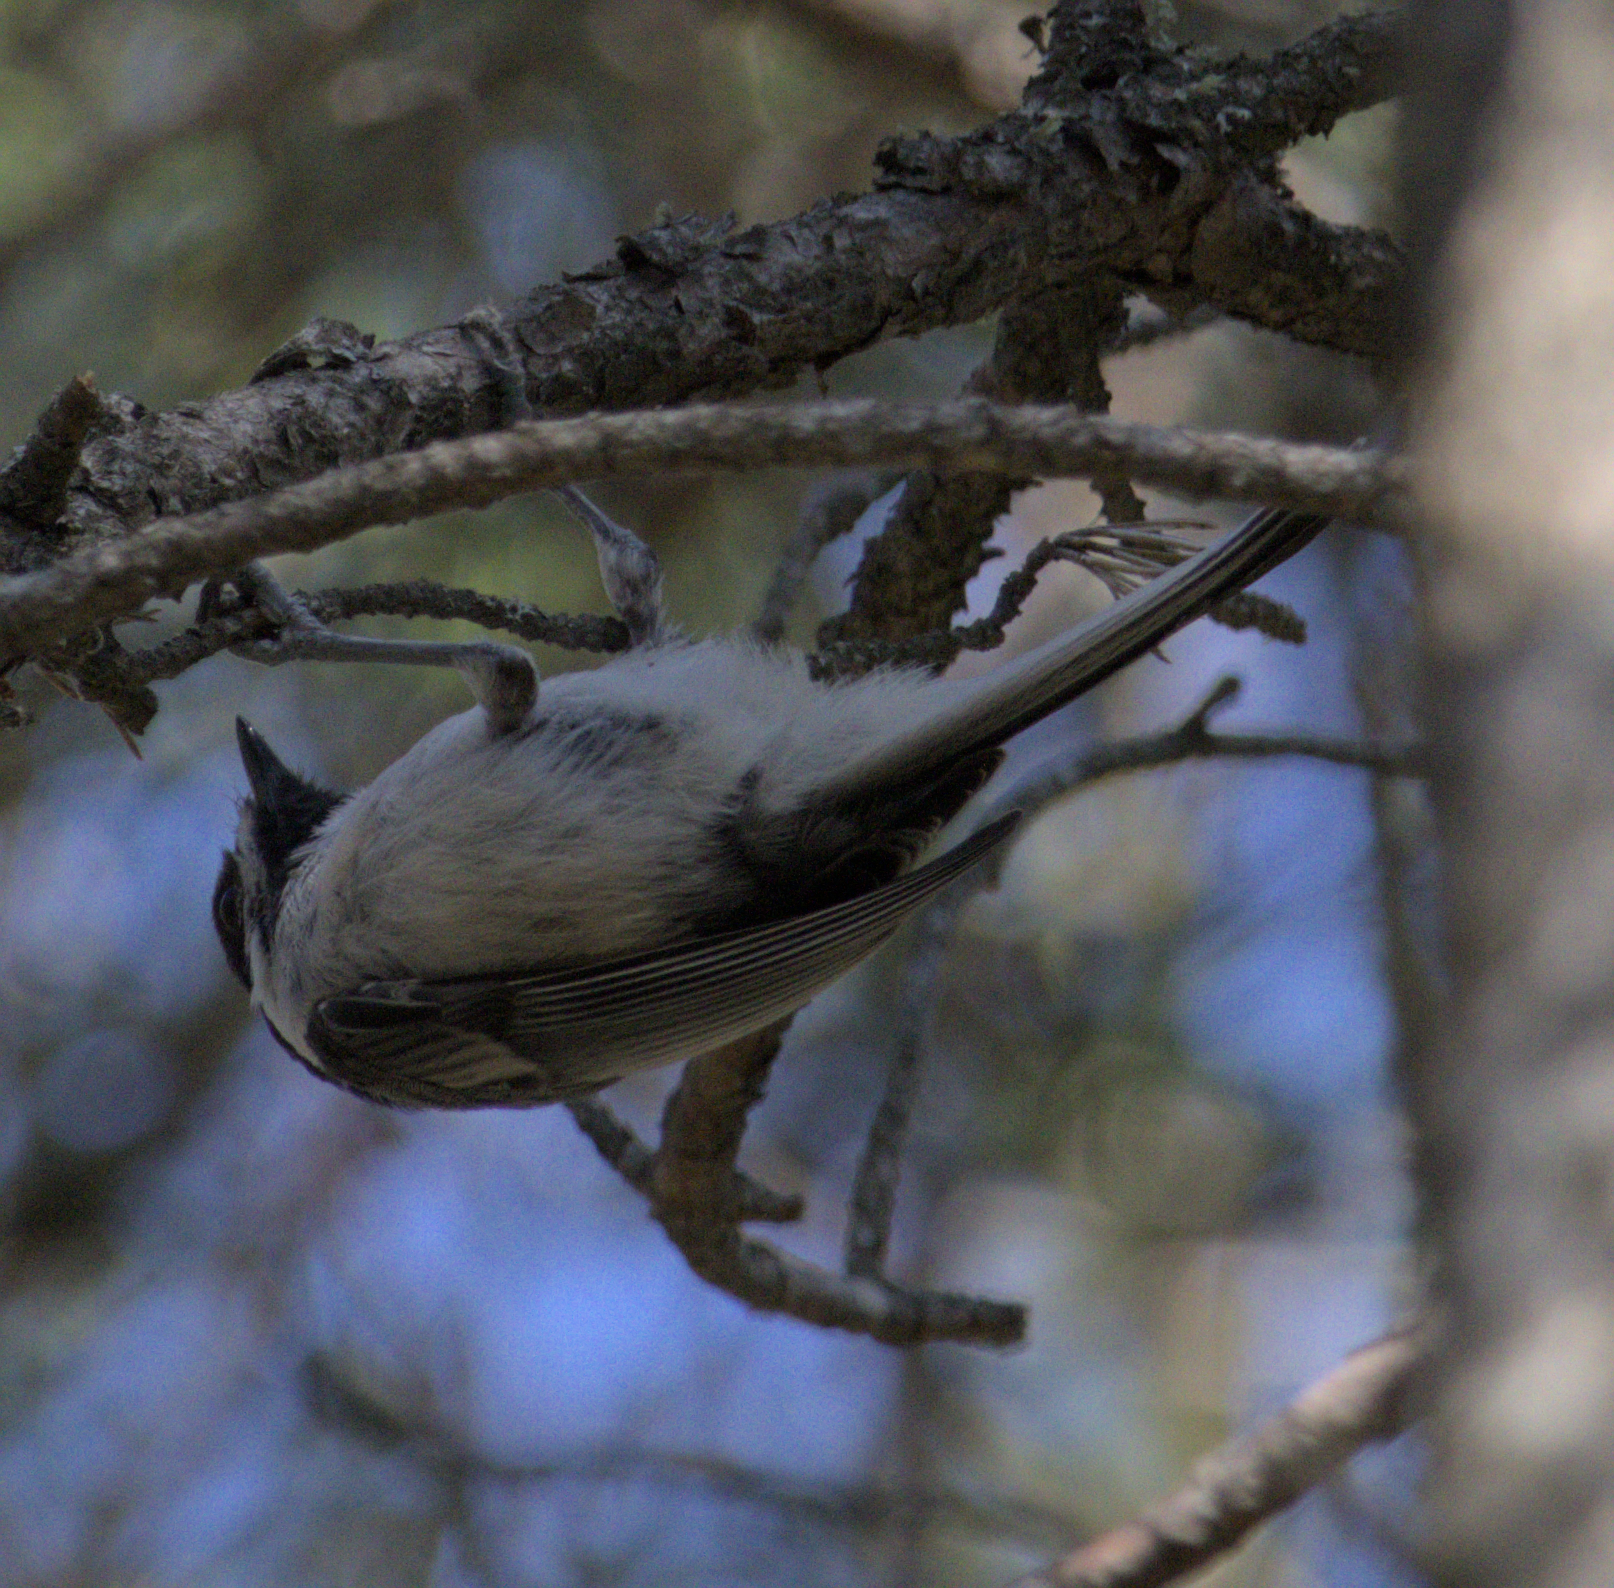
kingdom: Animalia
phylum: Chordata
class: Aves
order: Passeriformes
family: Paridae
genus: Poecile
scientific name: Poecile atricapillus
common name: Black-capped chickadee
